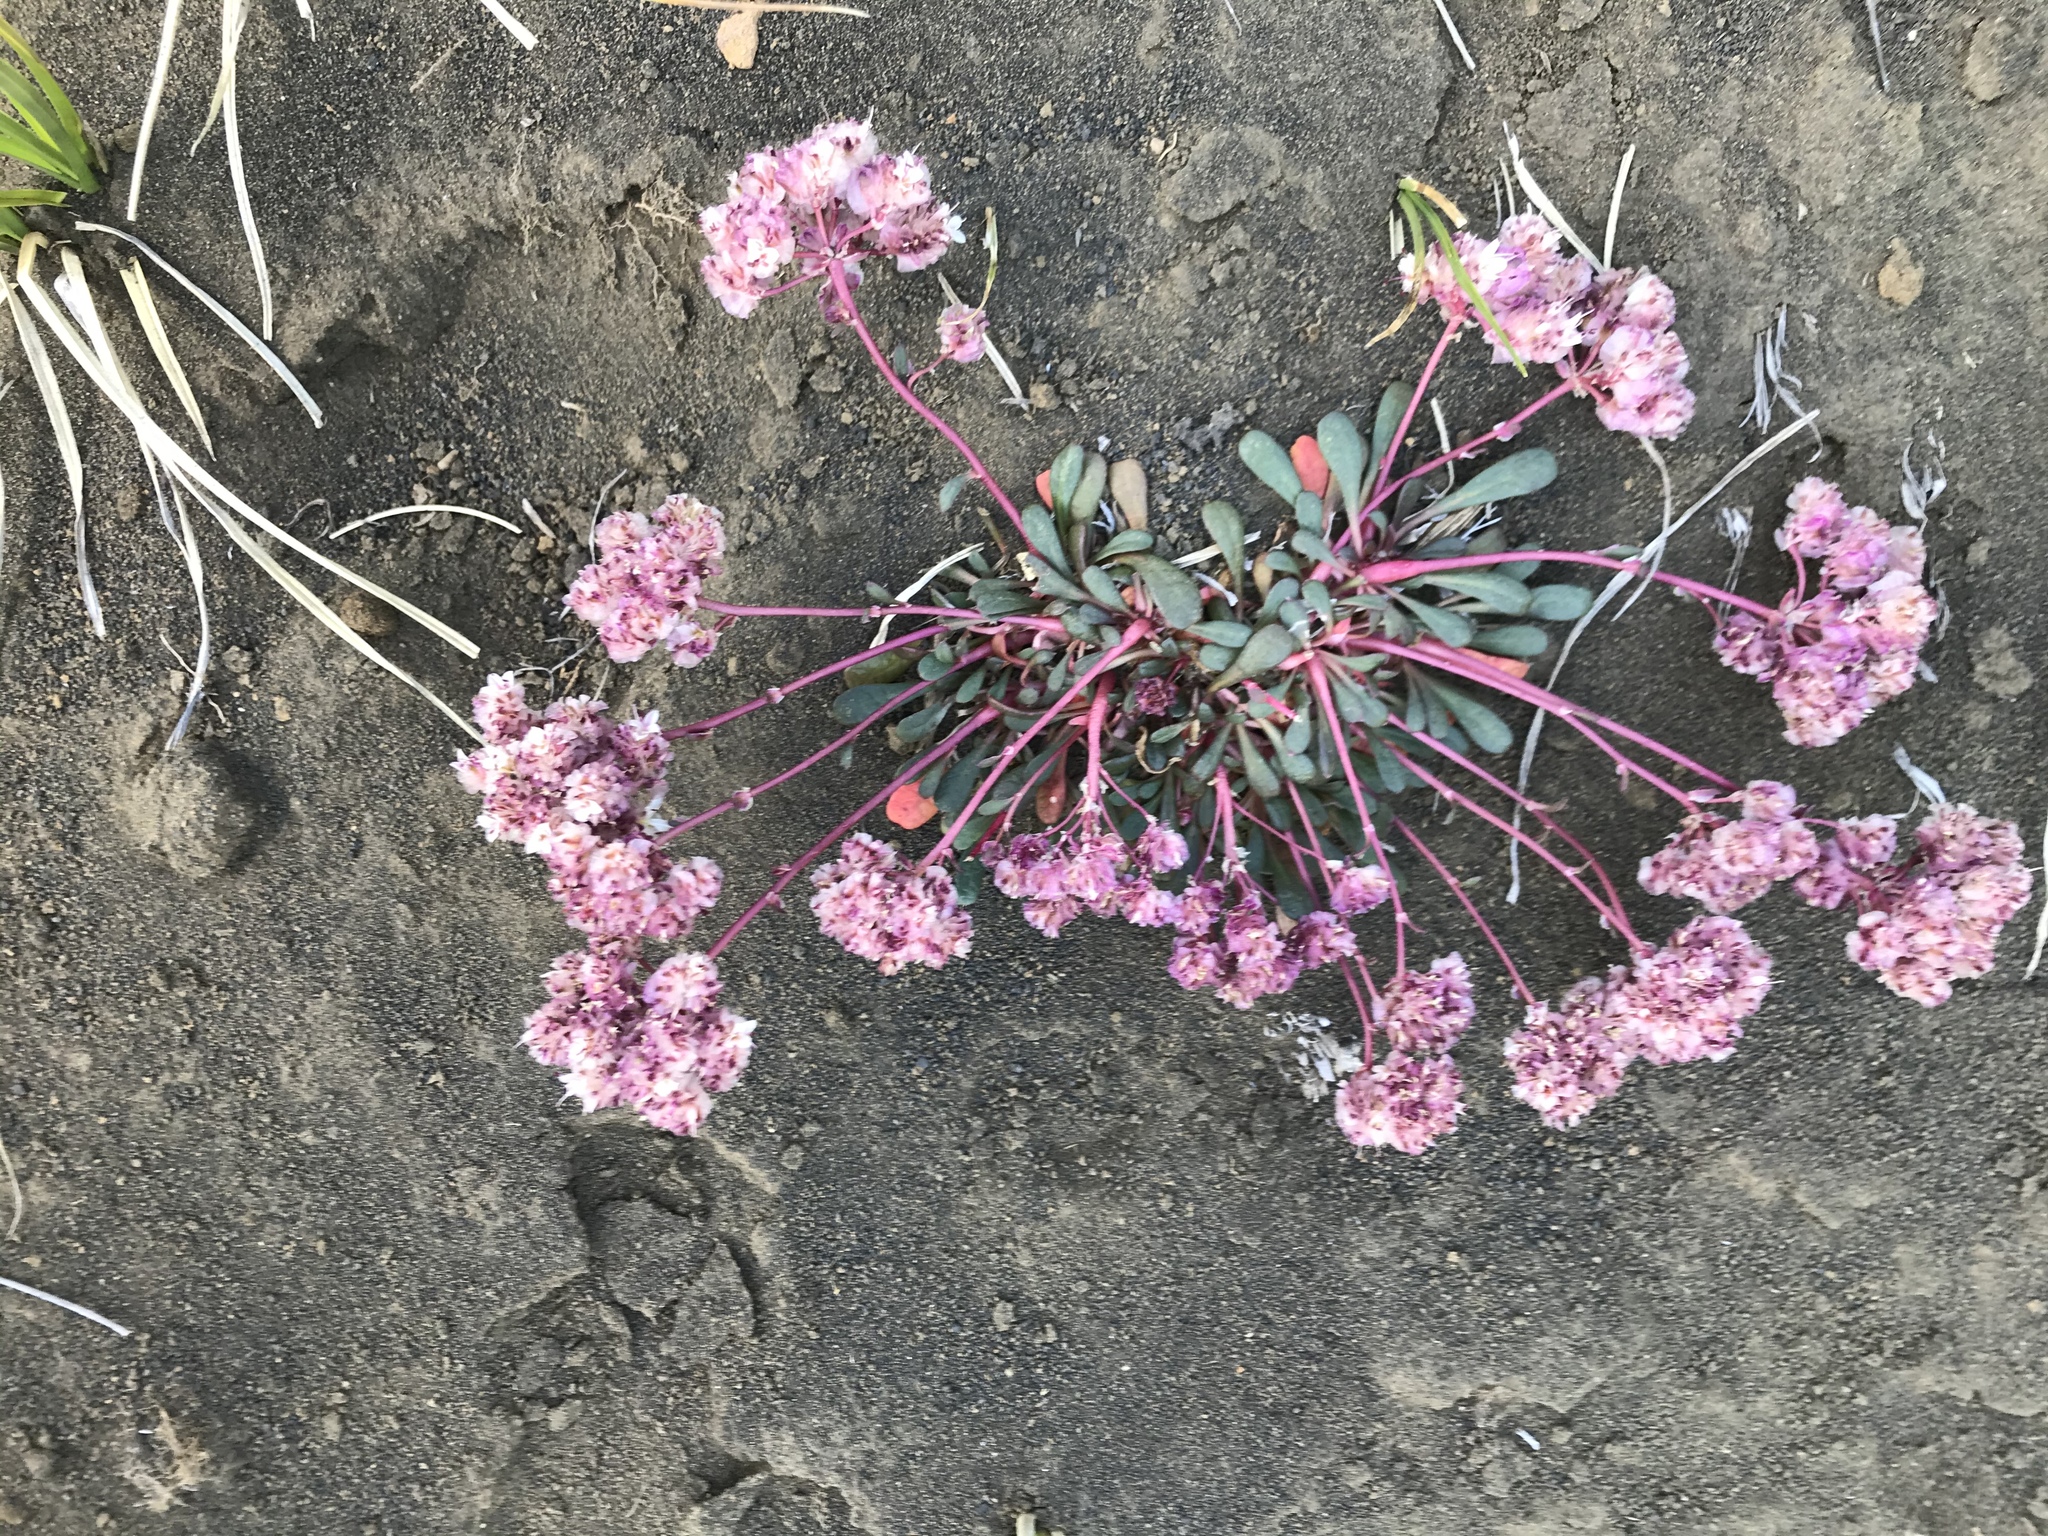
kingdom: Plantae
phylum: Tracheophyta
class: Magnoliopsida
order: Caryophyllales
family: Montiaceae
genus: Calyptridium
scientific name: Calyptridium umbellatum
